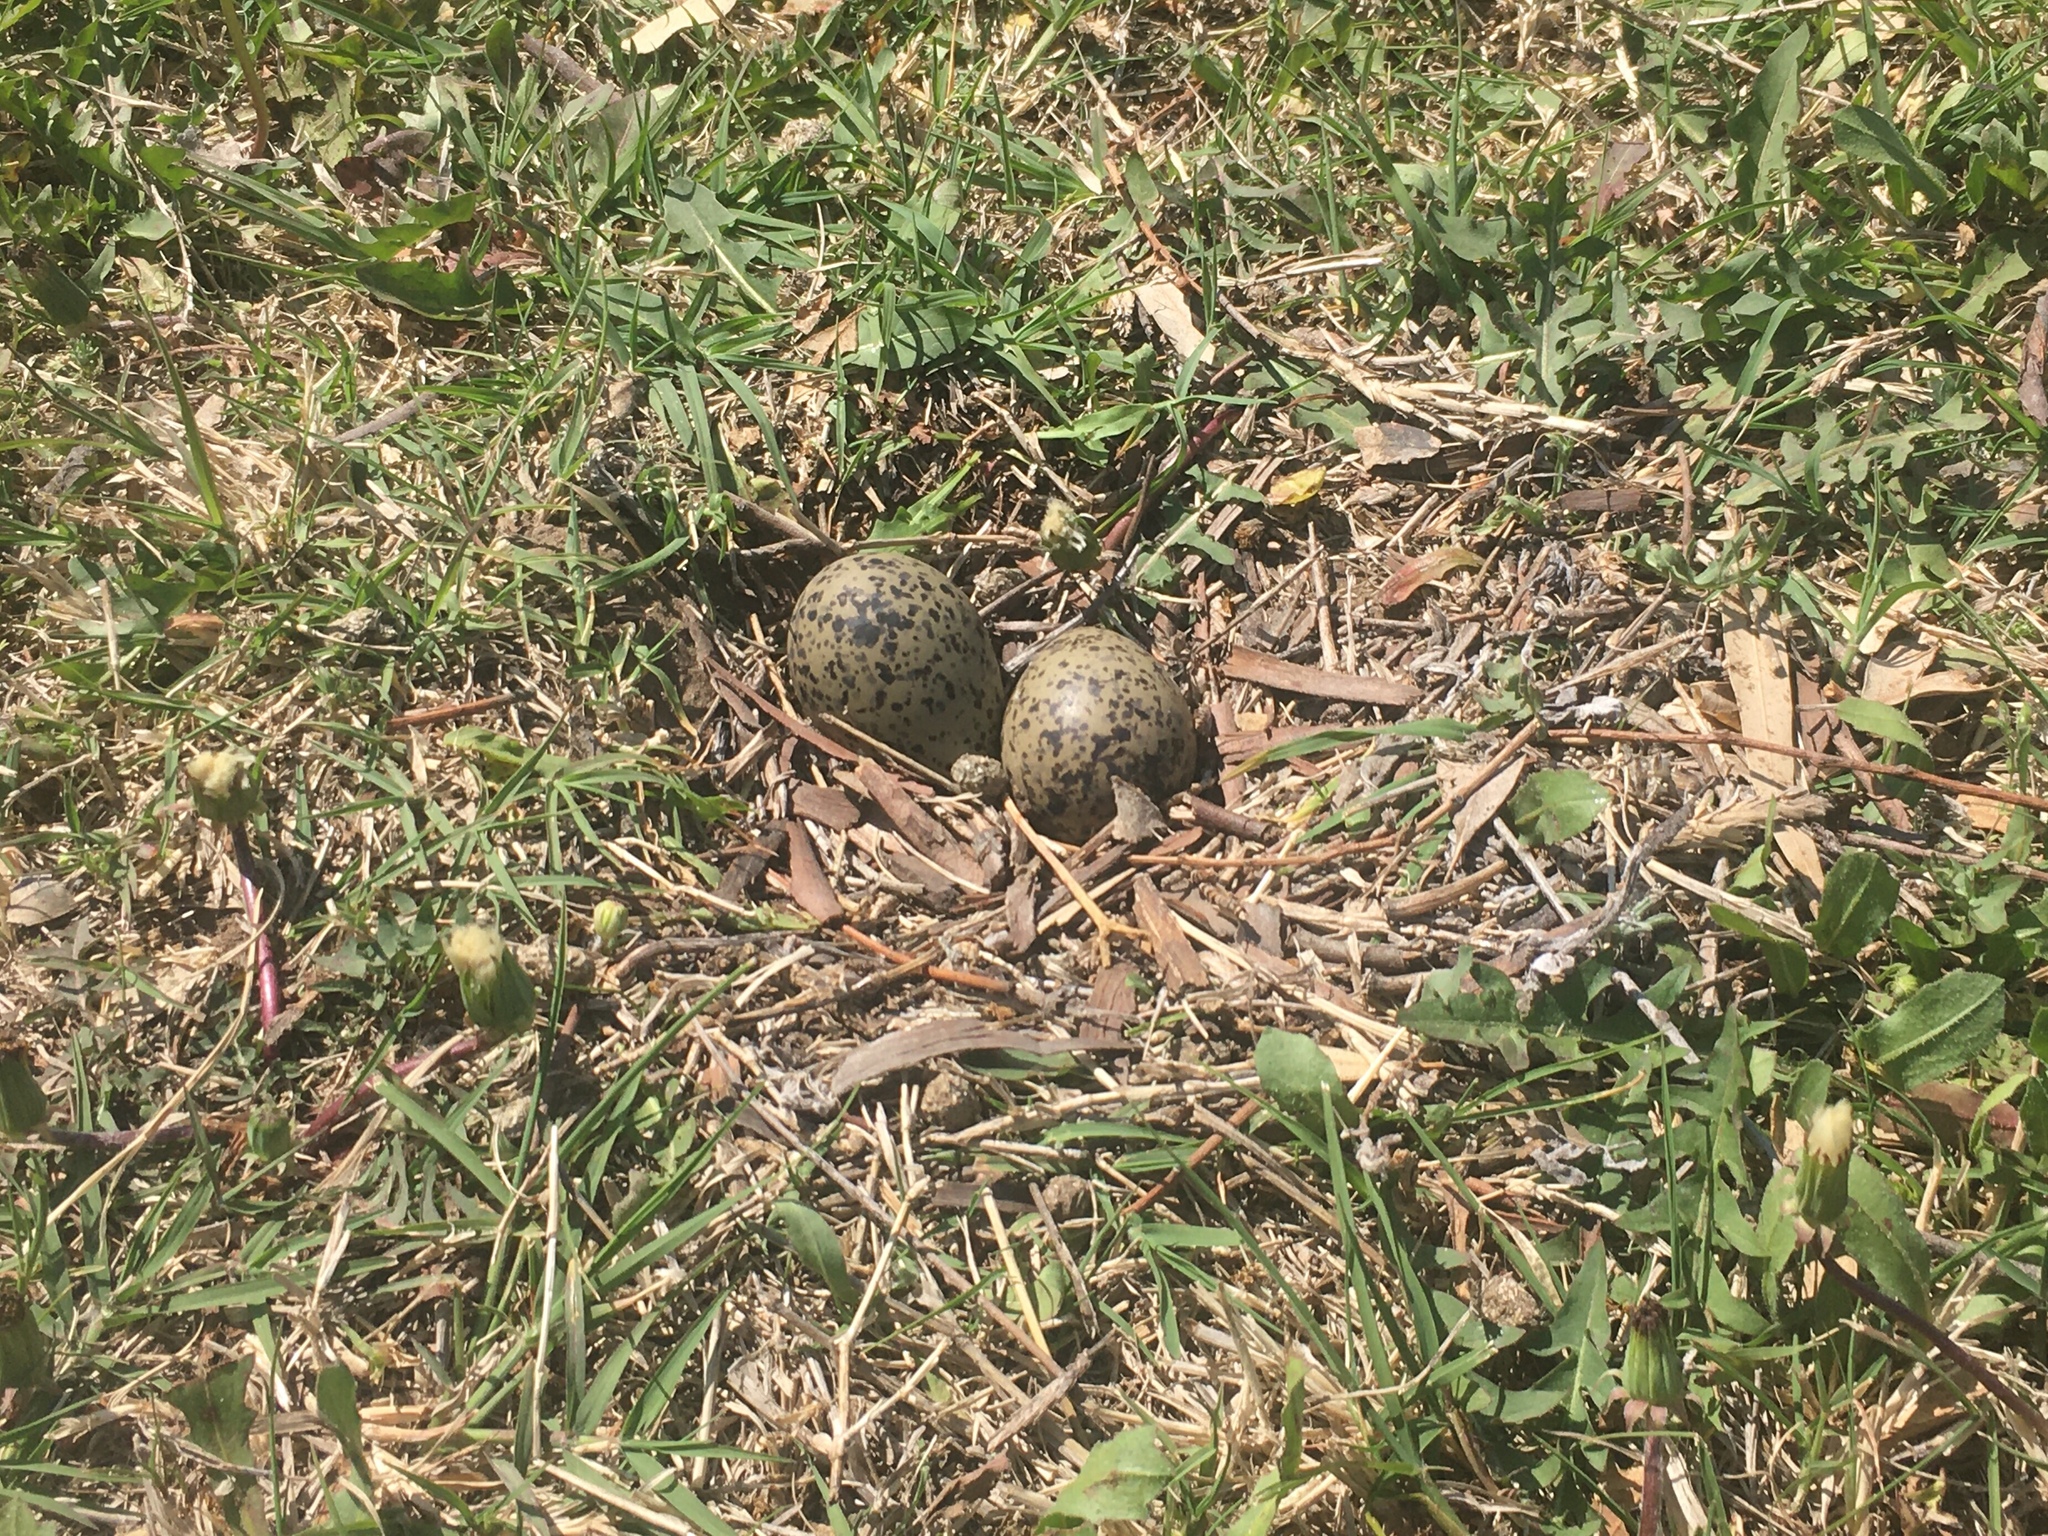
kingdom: Animalia
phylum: Chordata
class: Aves
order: Charadriiformes
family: Charadriidae
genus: Vanellus
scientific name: Vanellus chilensis
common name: Southern lapwing
